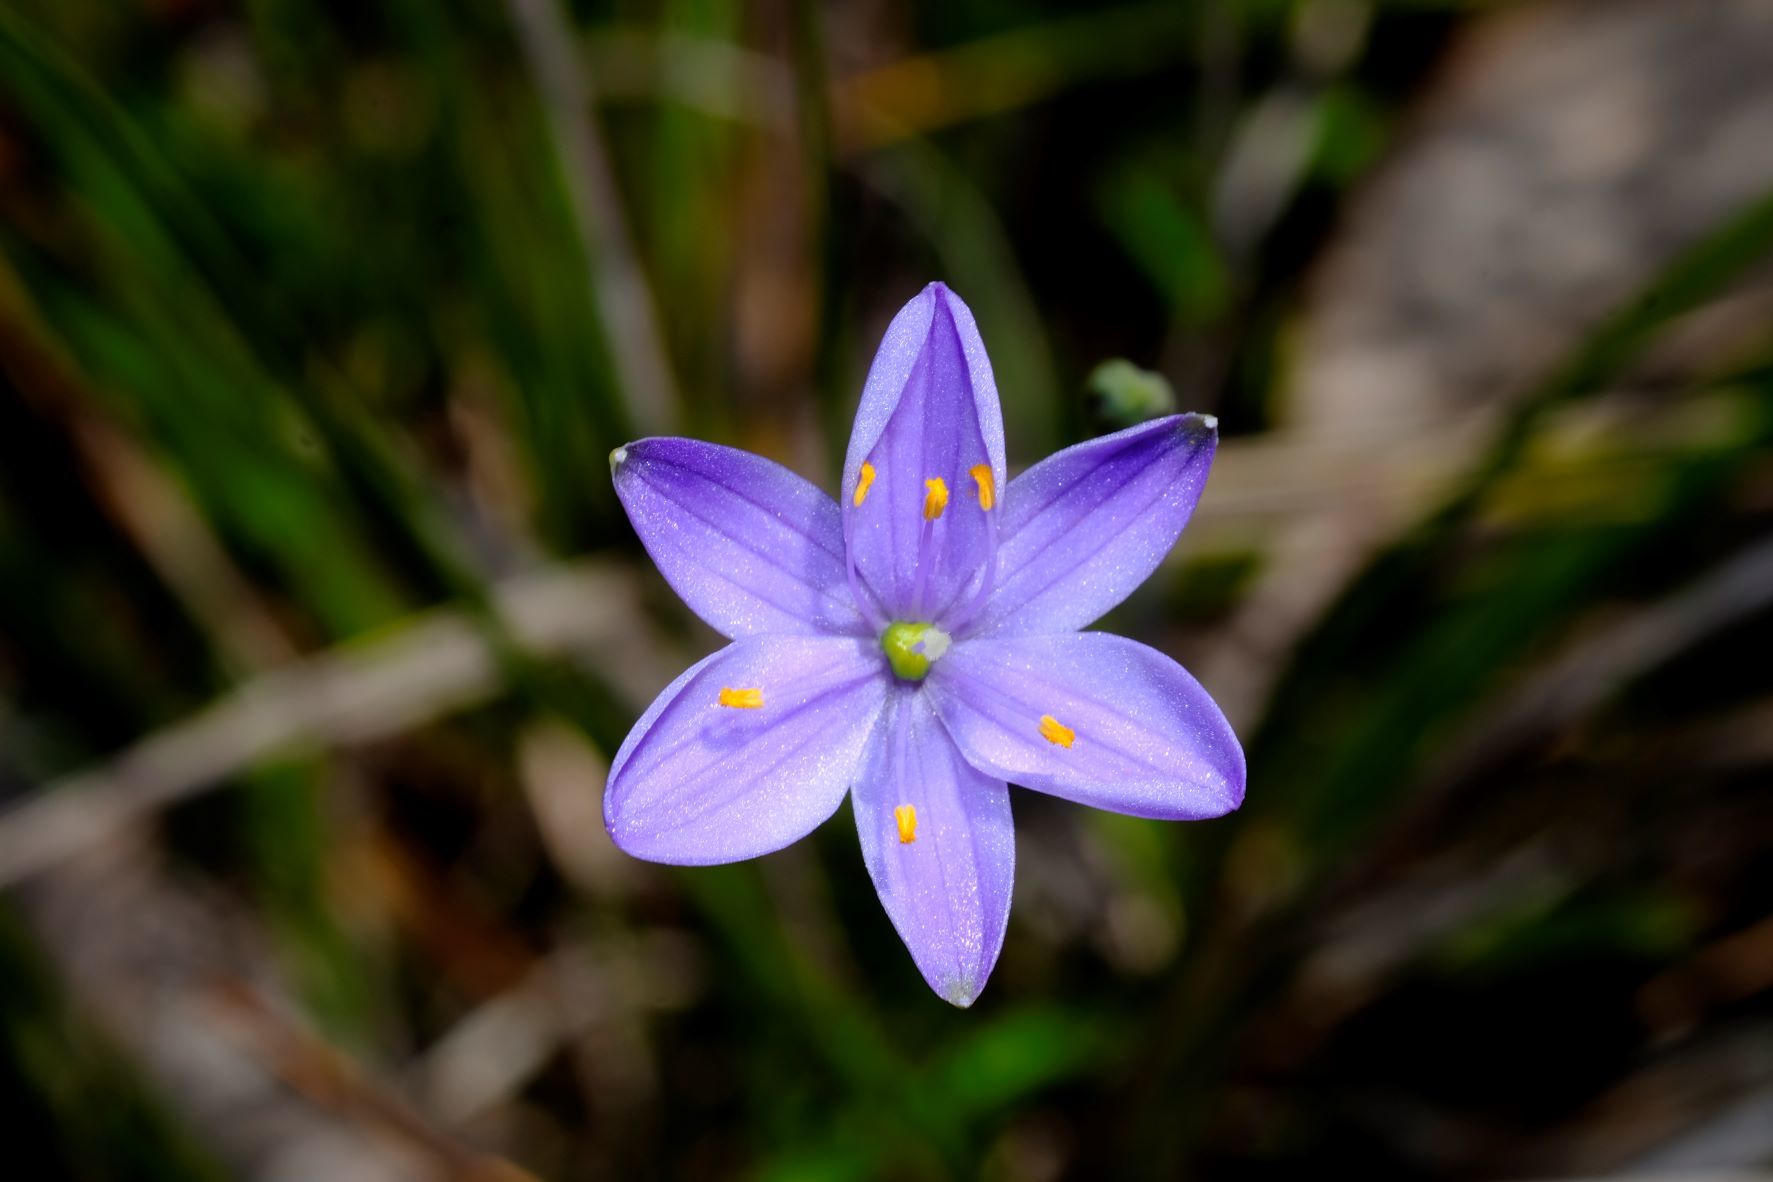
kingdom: Plantae
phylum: Tracheophyta
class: Liliopsida
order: Asparagales
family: Asphodelaceae
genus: Chamaescilla
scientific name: Chamaescilla corymbosa
